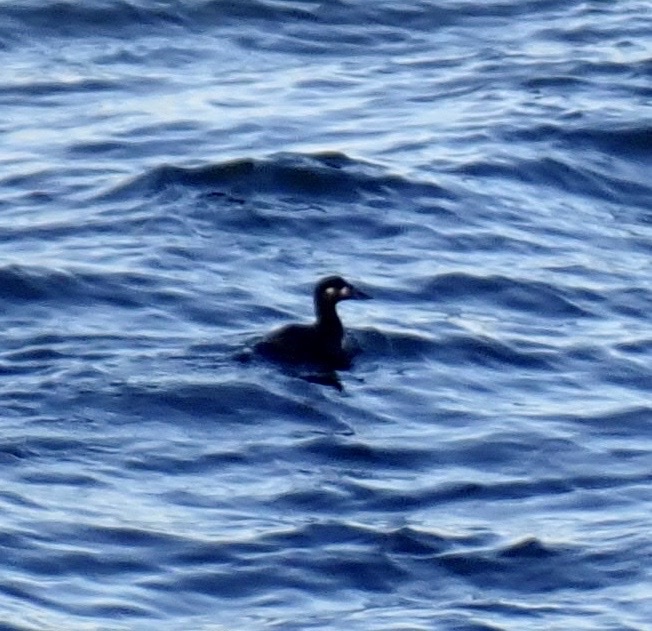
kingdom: Animalia
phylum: Chordata
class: Aves
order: Anseriformes
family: Anatidae
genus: Melanitta
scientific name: Melanitta perspicillata
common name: Surf scoter
